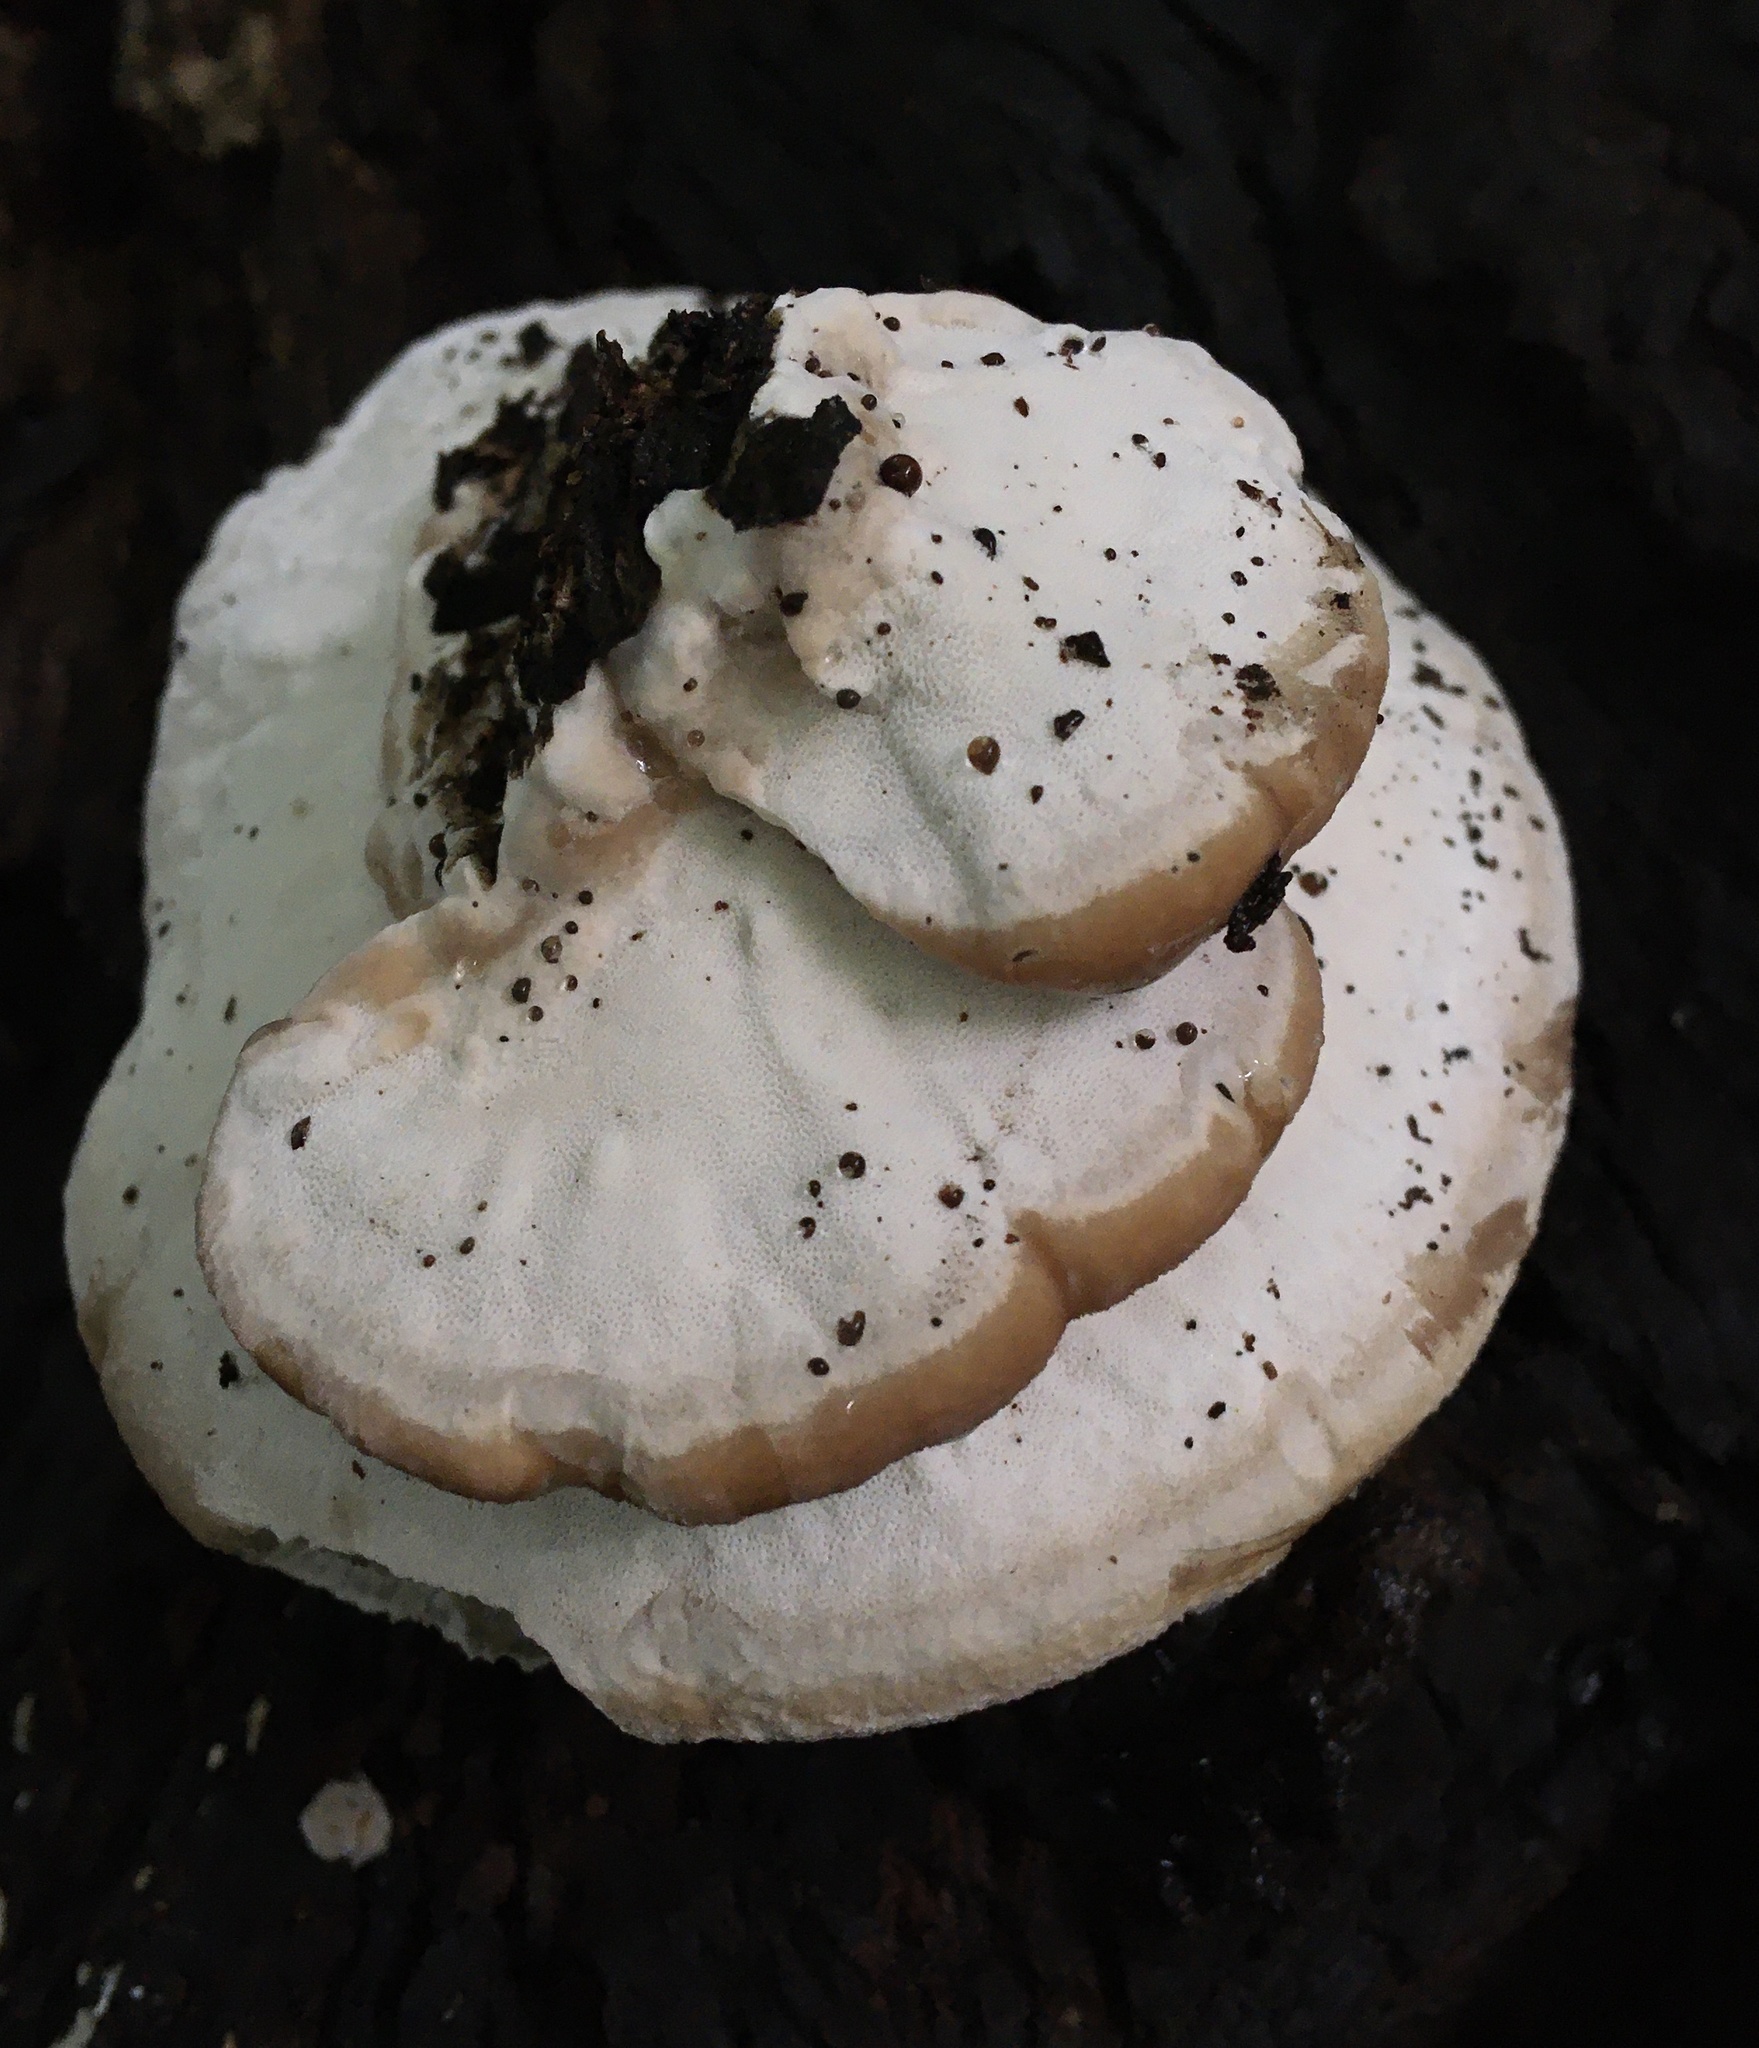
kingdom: Fungi
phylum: Basidiomycota
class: Agaricomycetes
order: Polyporales
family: Fomitopsidaceae
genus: Niveoporofomes
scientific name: Niveoporofomes spraguei
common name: Green cheese polypore
